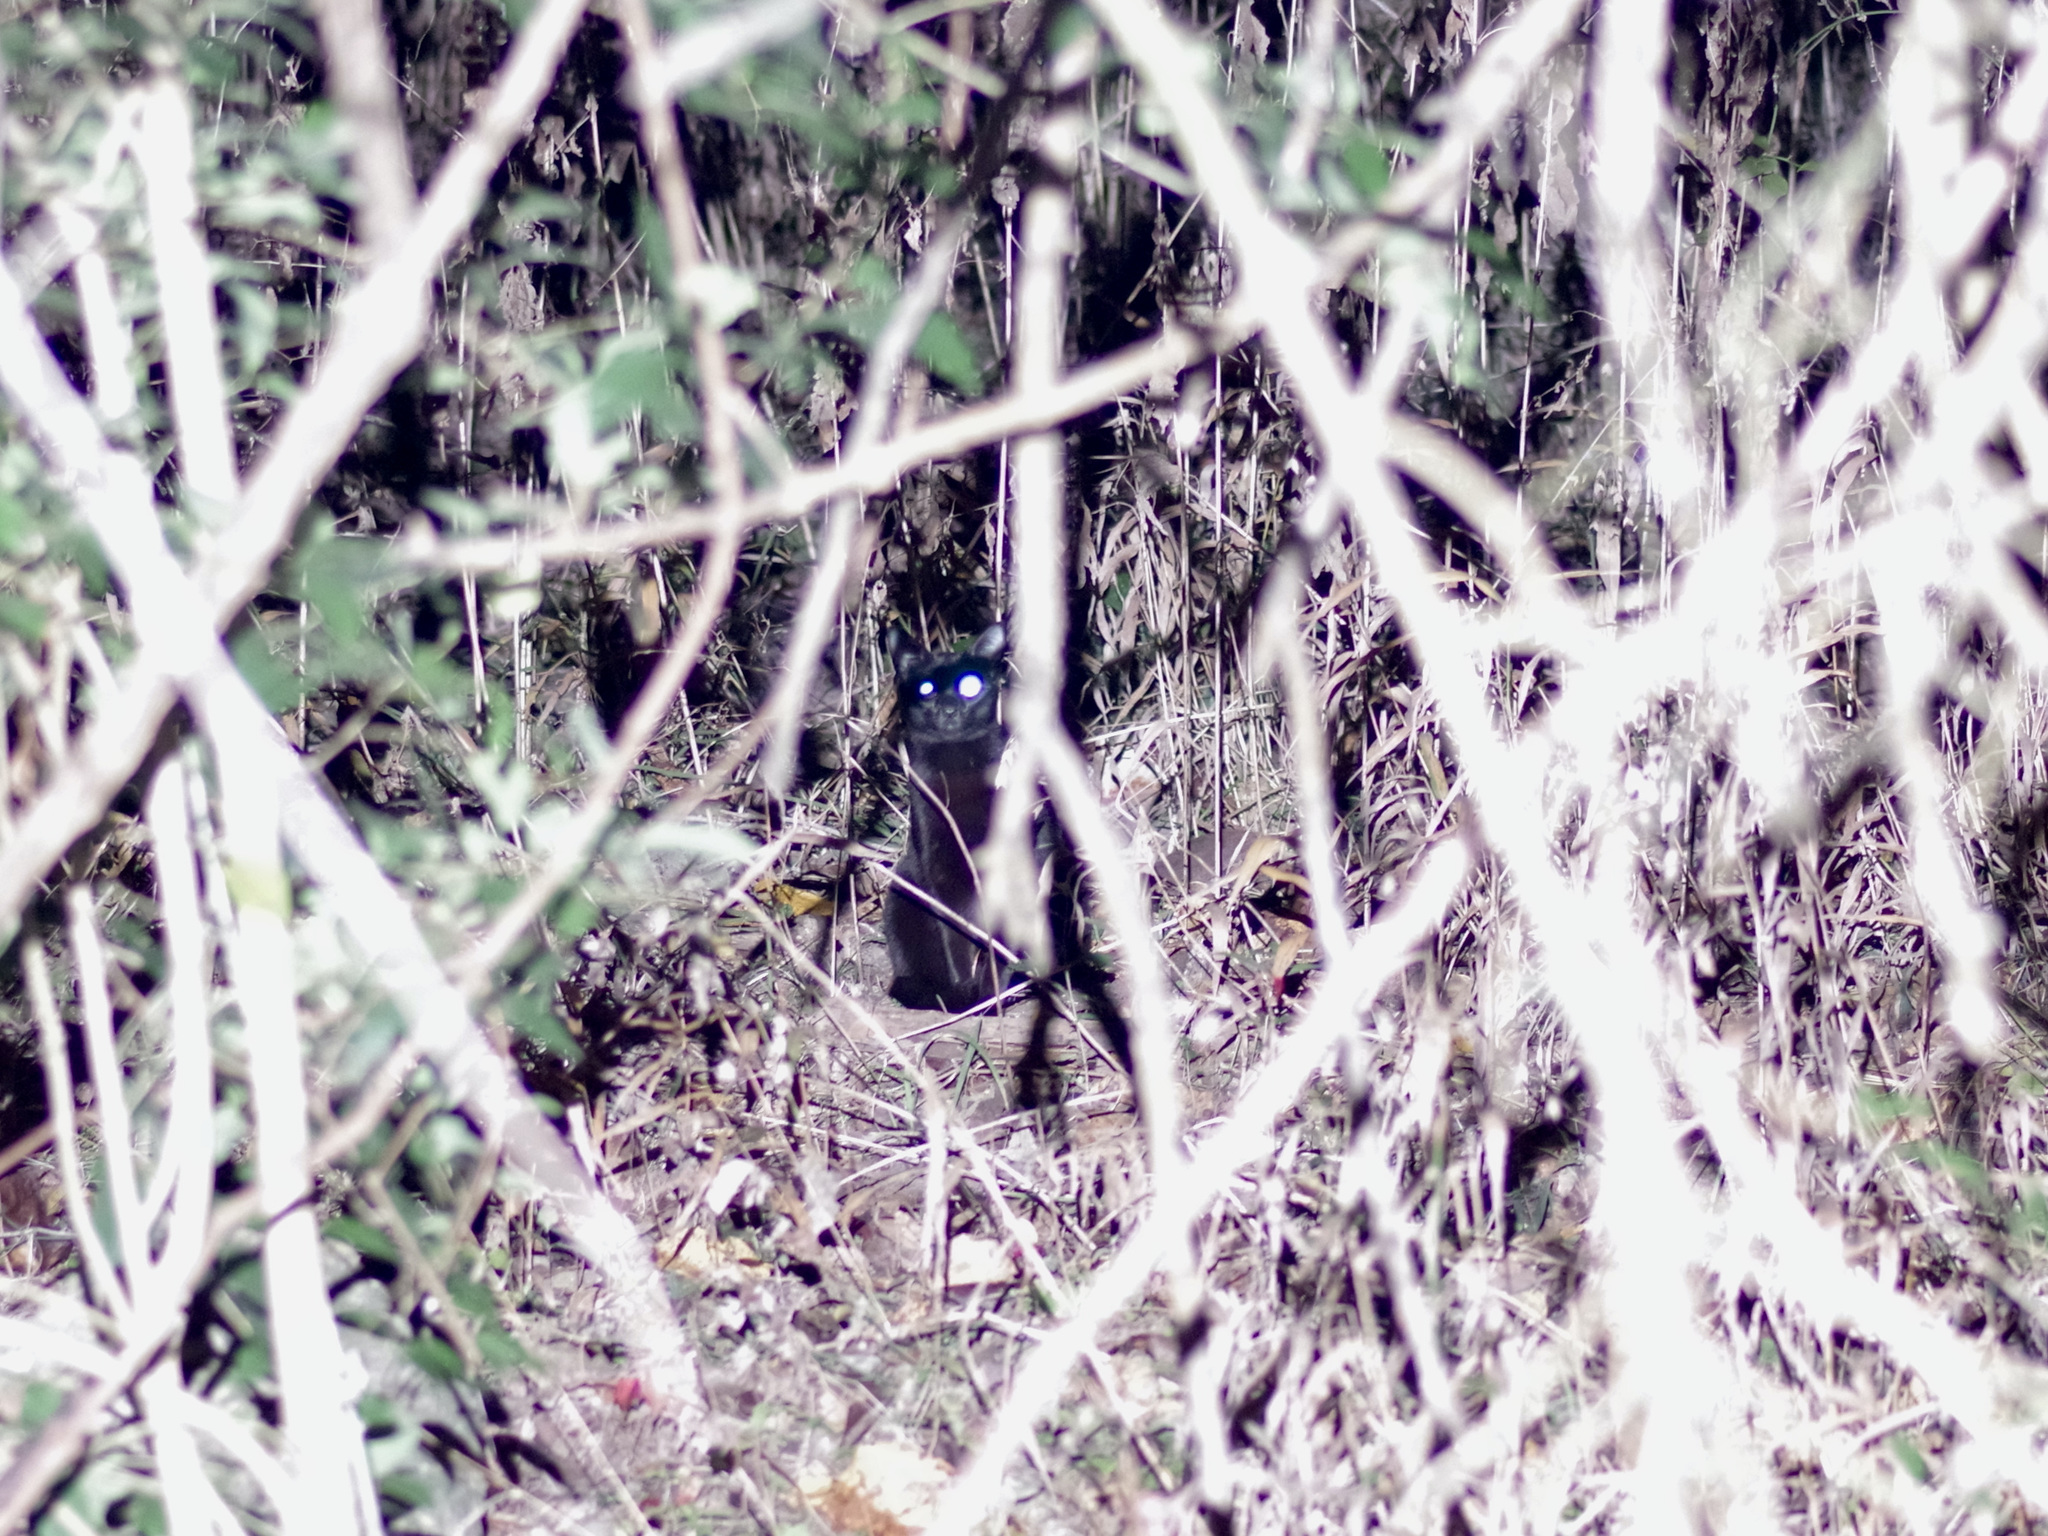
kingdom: Animalia
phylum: Chordata
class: Mammalia
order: Carnivora
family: Felidae
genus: Felis
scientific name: Felis catus
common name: Domestic cat
